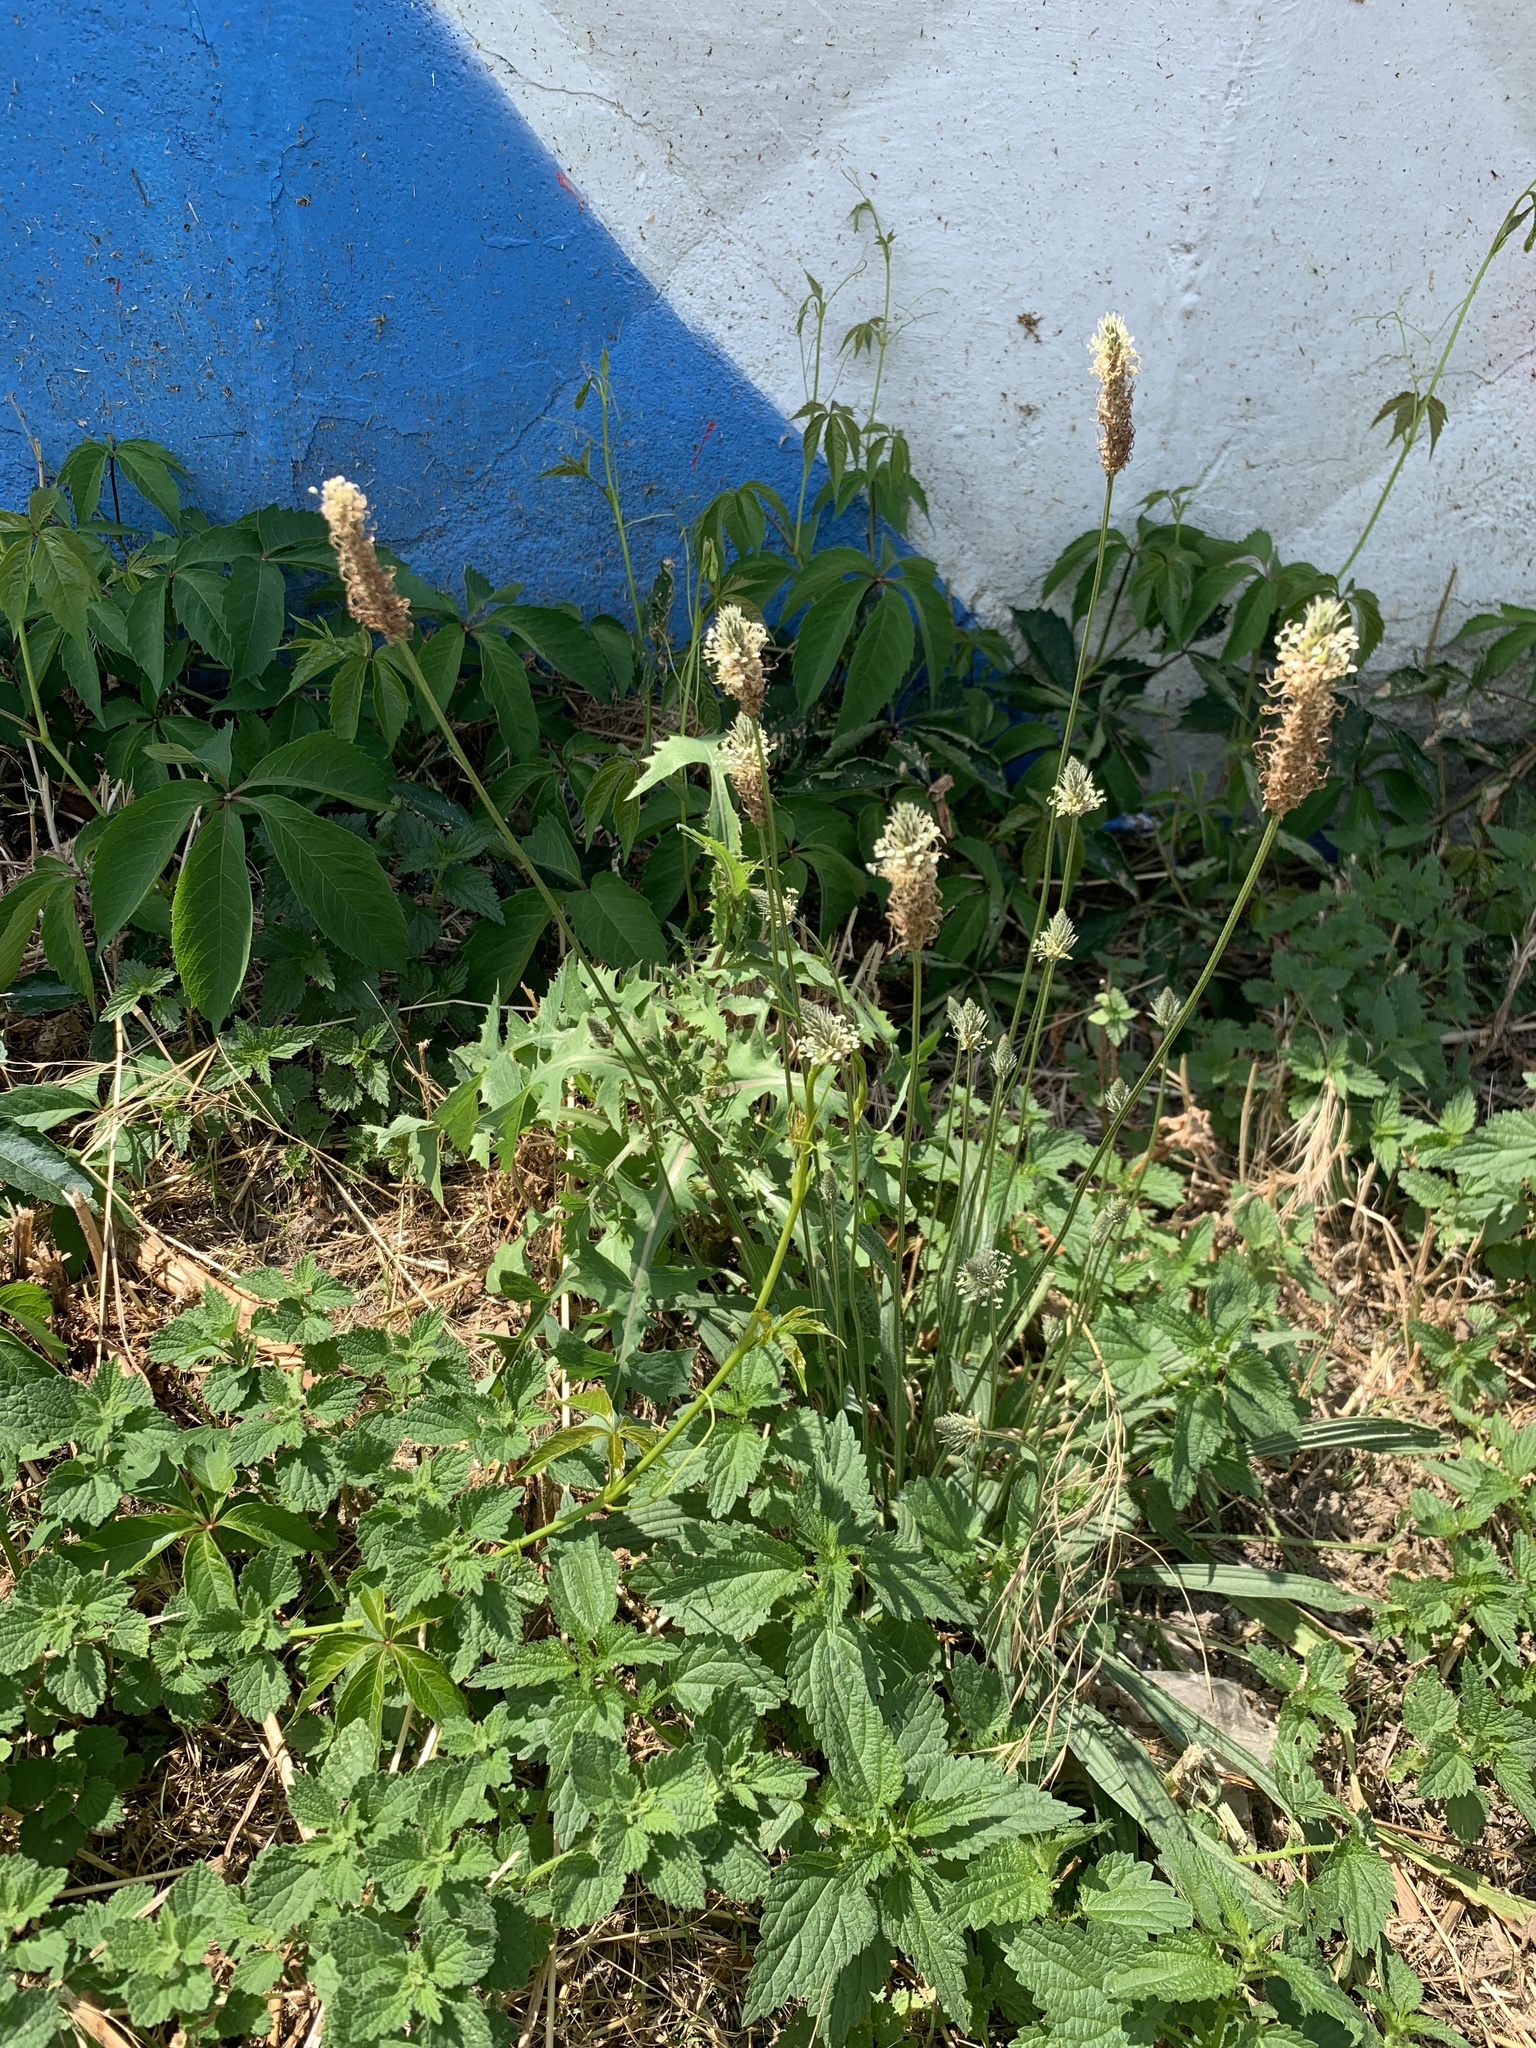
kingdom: Plantae
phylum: Tracheophyta
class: Magnoliopsida
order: Lamiales
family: Plantaginaceae
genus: Plantago
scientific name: Plantago lanceolata
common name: Ribwort plantain
